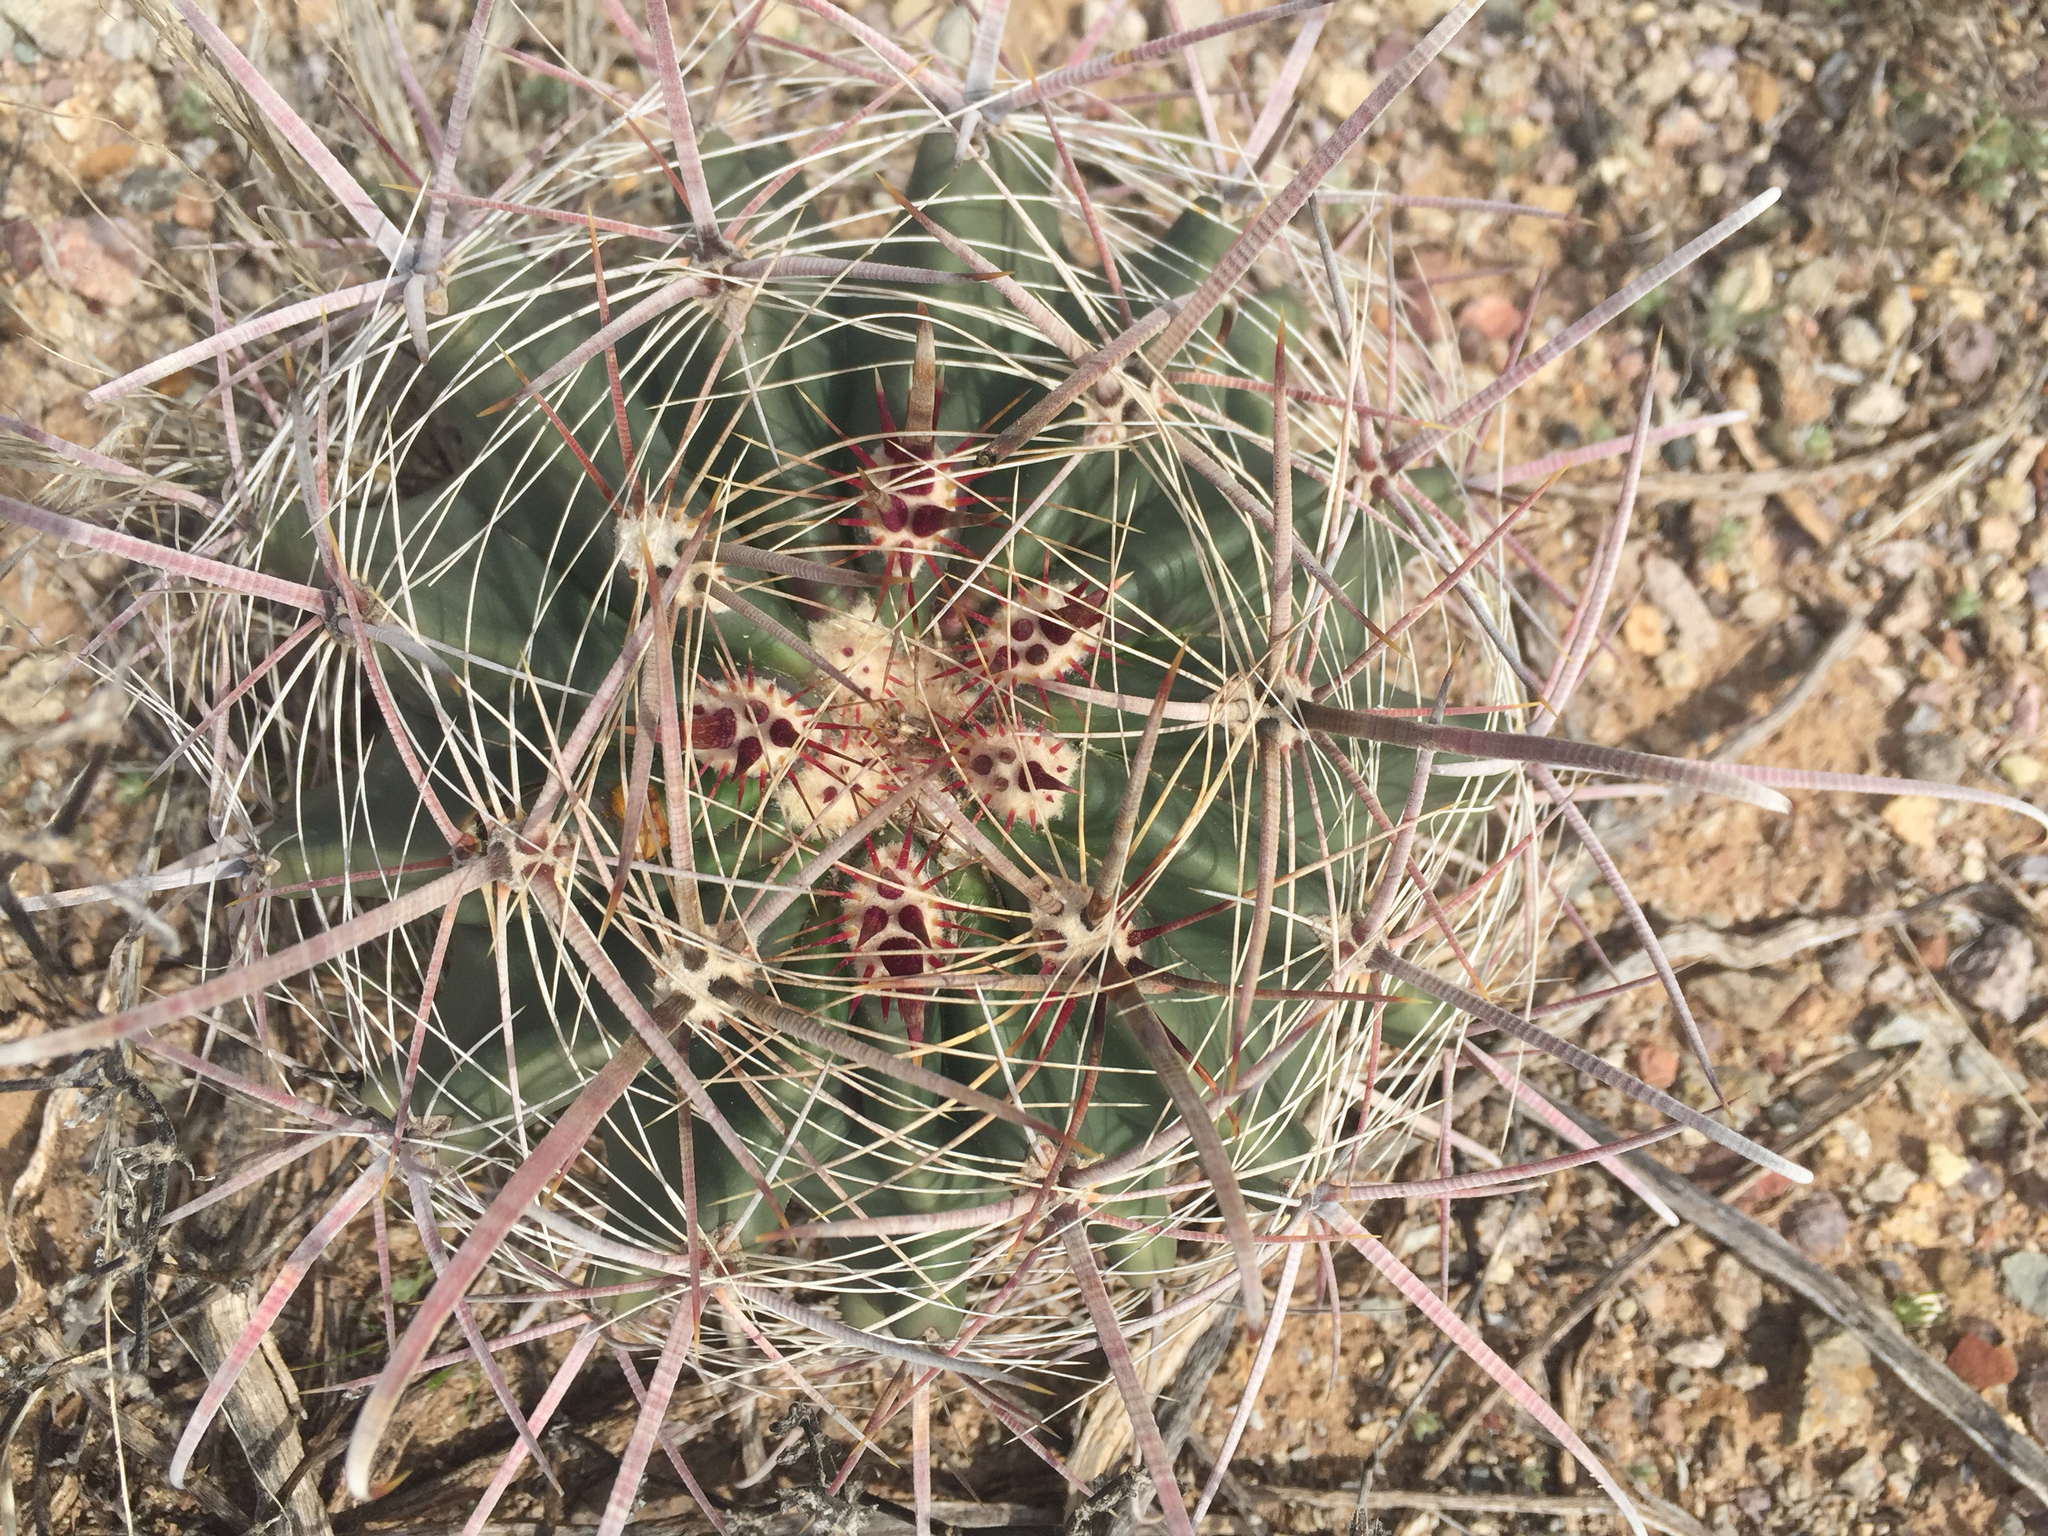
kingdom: Plantae
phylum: Tracheophyta
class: Magnoliopsida
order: Caryophyllales
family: Cactaceae
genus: Ferocactus
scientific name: Ferocactus wislizeni
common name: Candy barrel cactus
